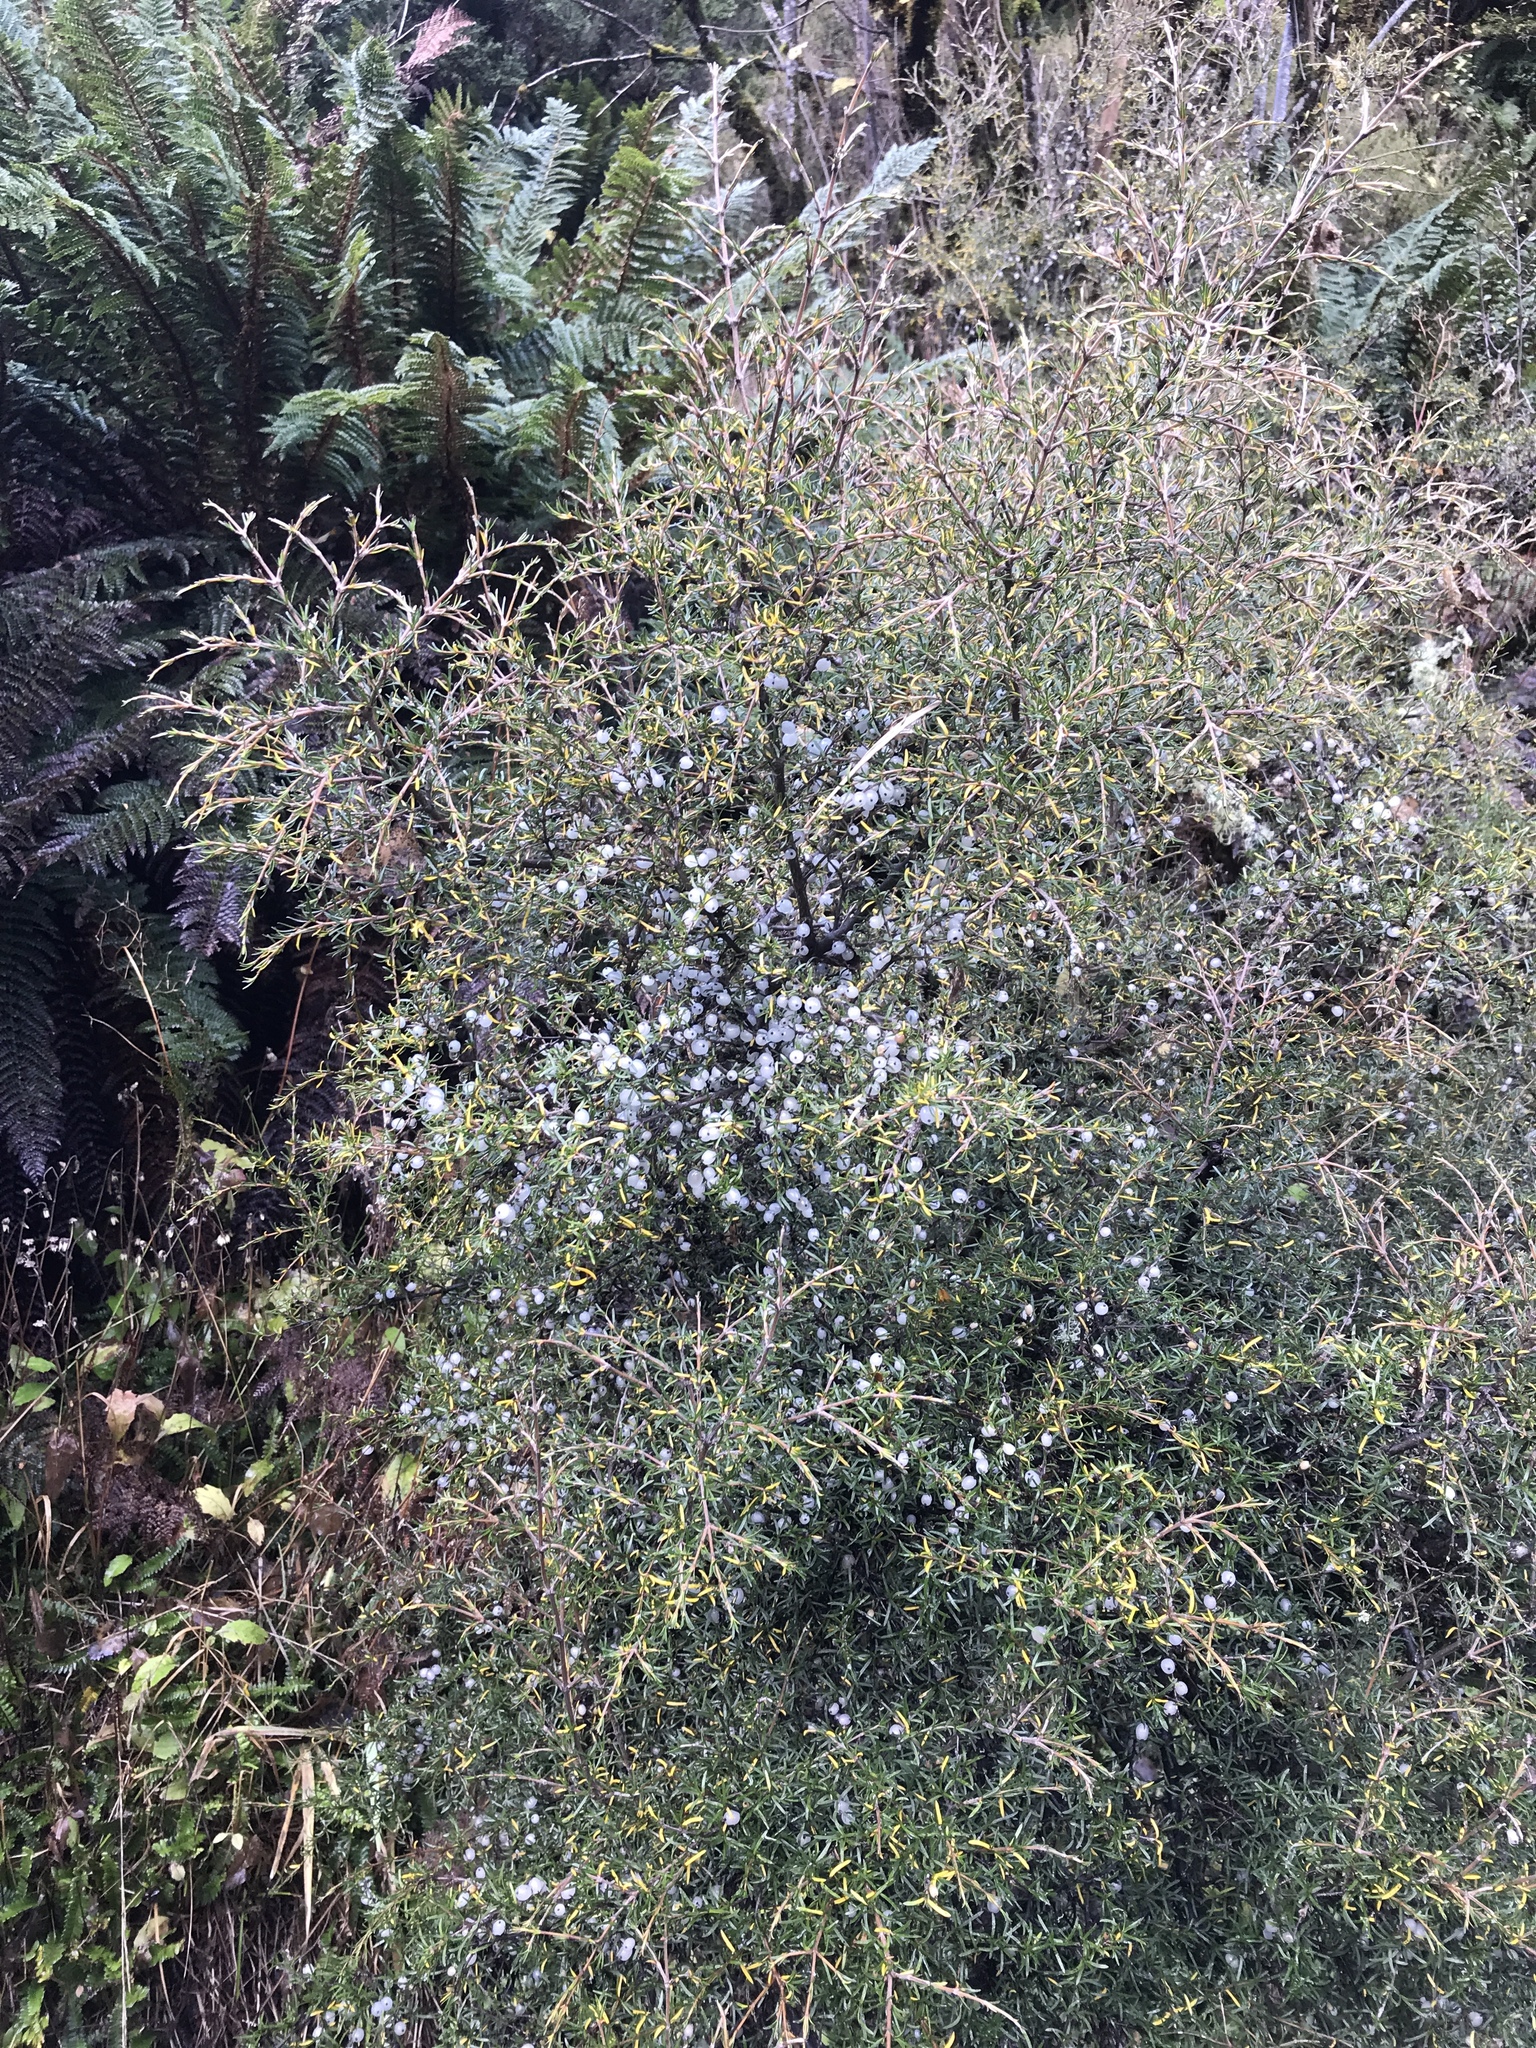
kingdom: Plantae
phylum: Tracheophyta
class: Magnoliopsida
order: Gentianales
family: Rubiaceae
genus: Coprosma
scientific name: Coprosma rugosa
